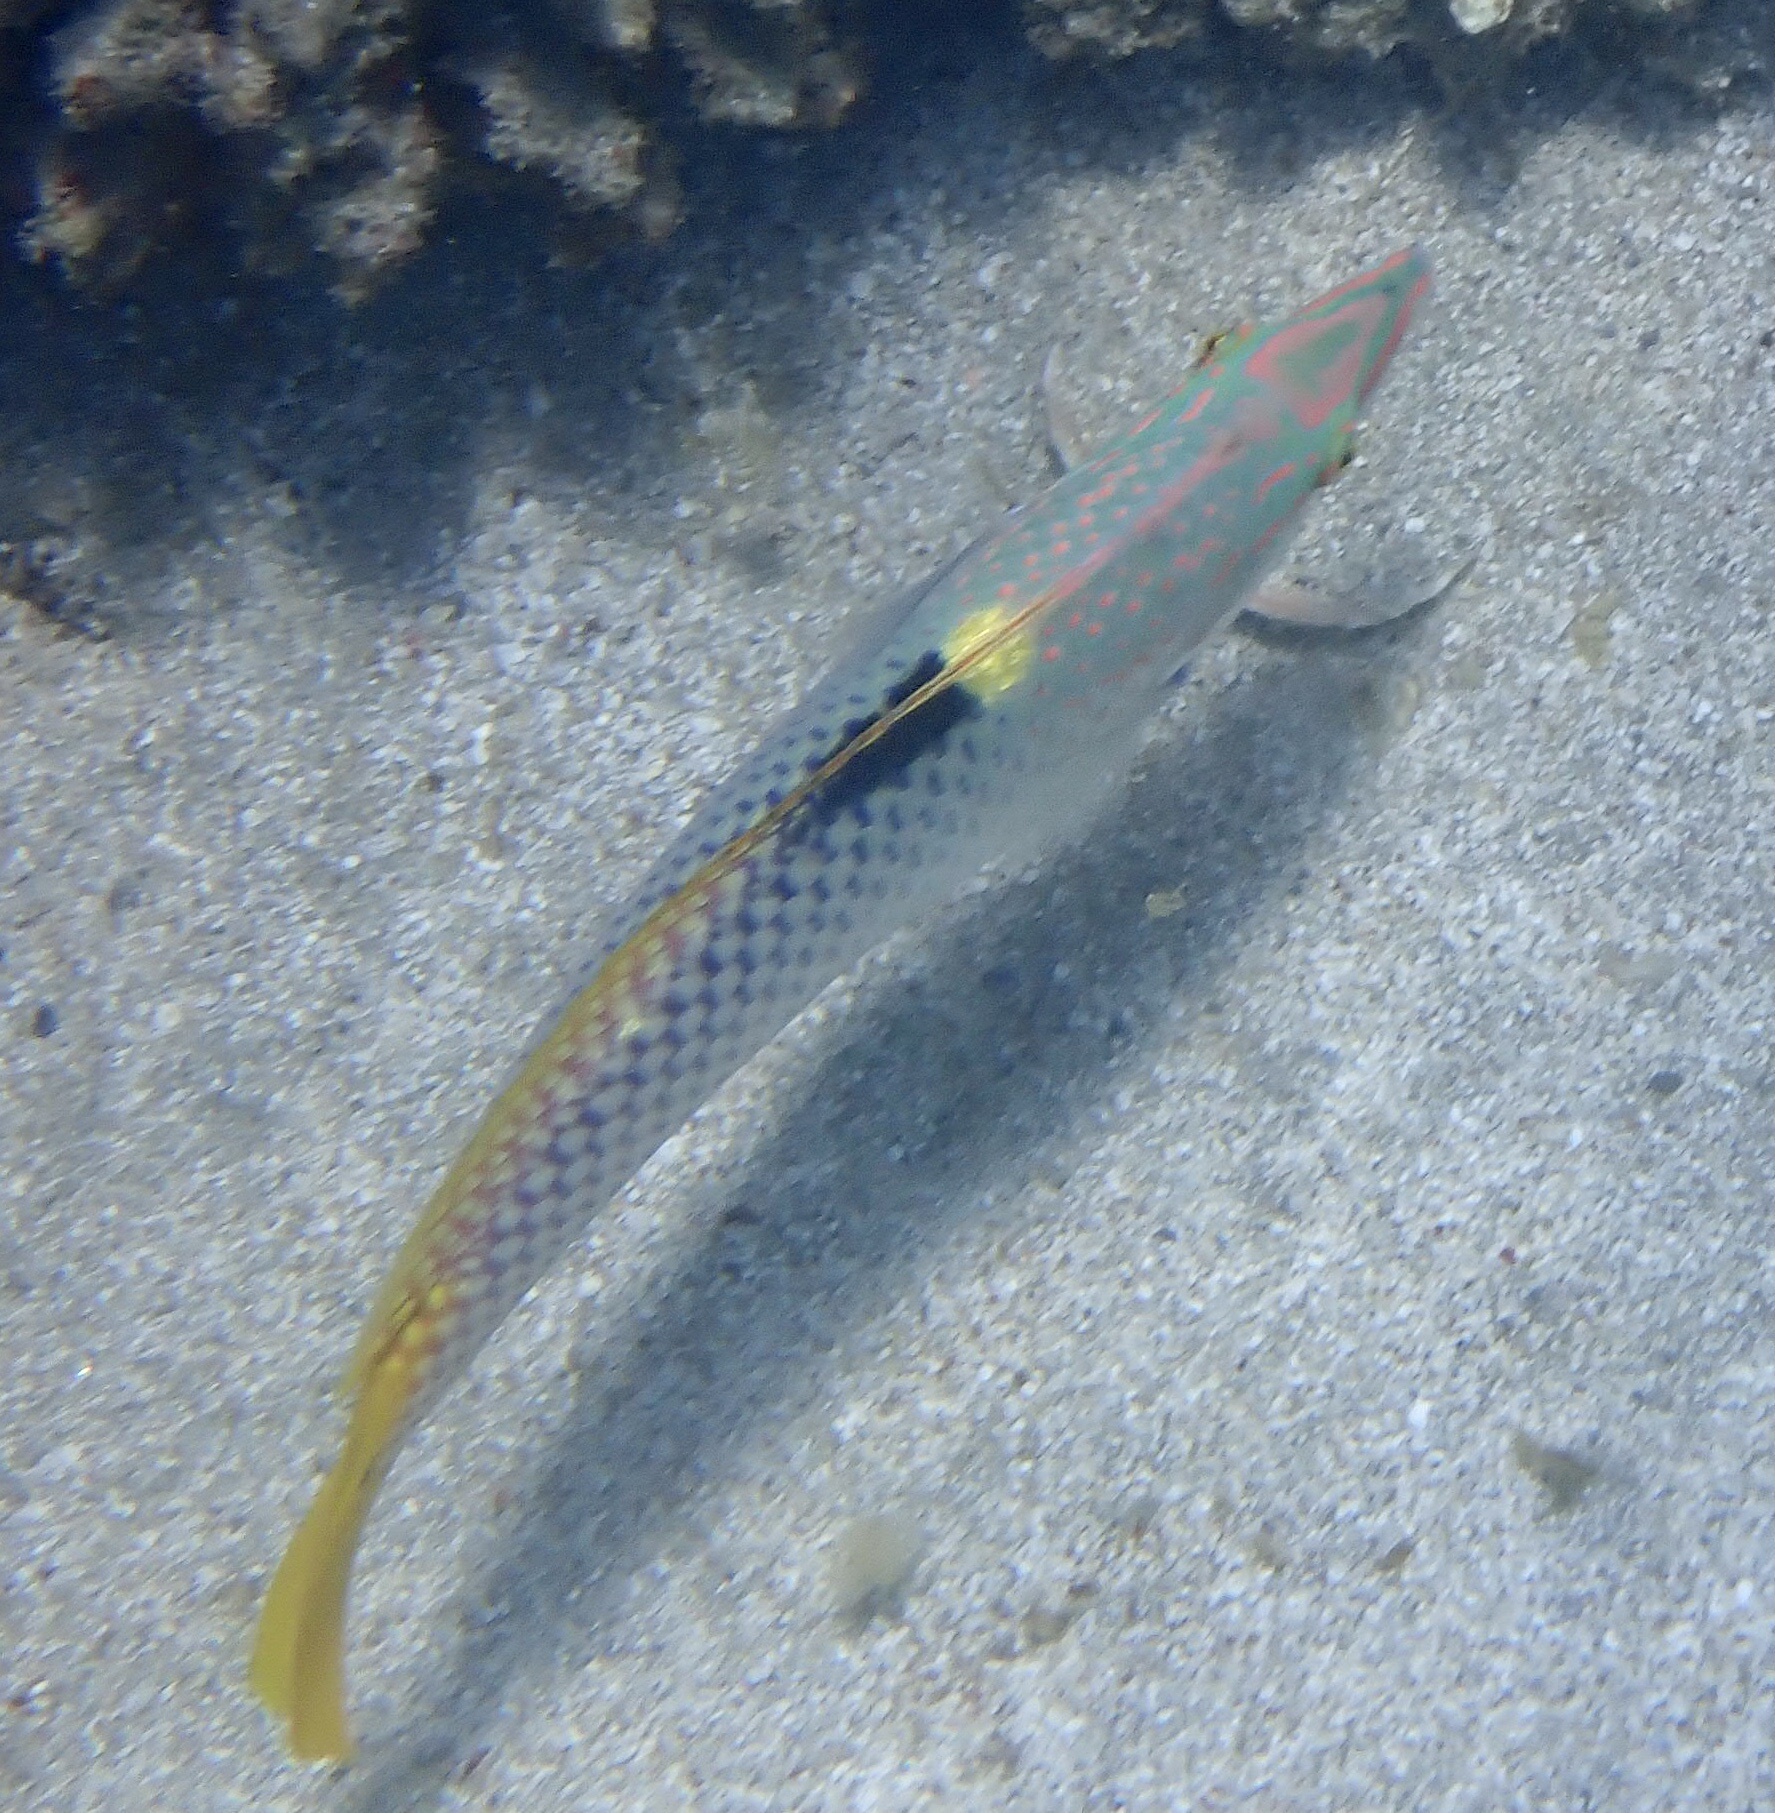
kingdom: Animalia
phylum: Chordata
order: Perciformes
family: Labridae
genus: Halichoeres
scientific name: Halichoeres hortulanus
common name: Checkerboard wrasse
